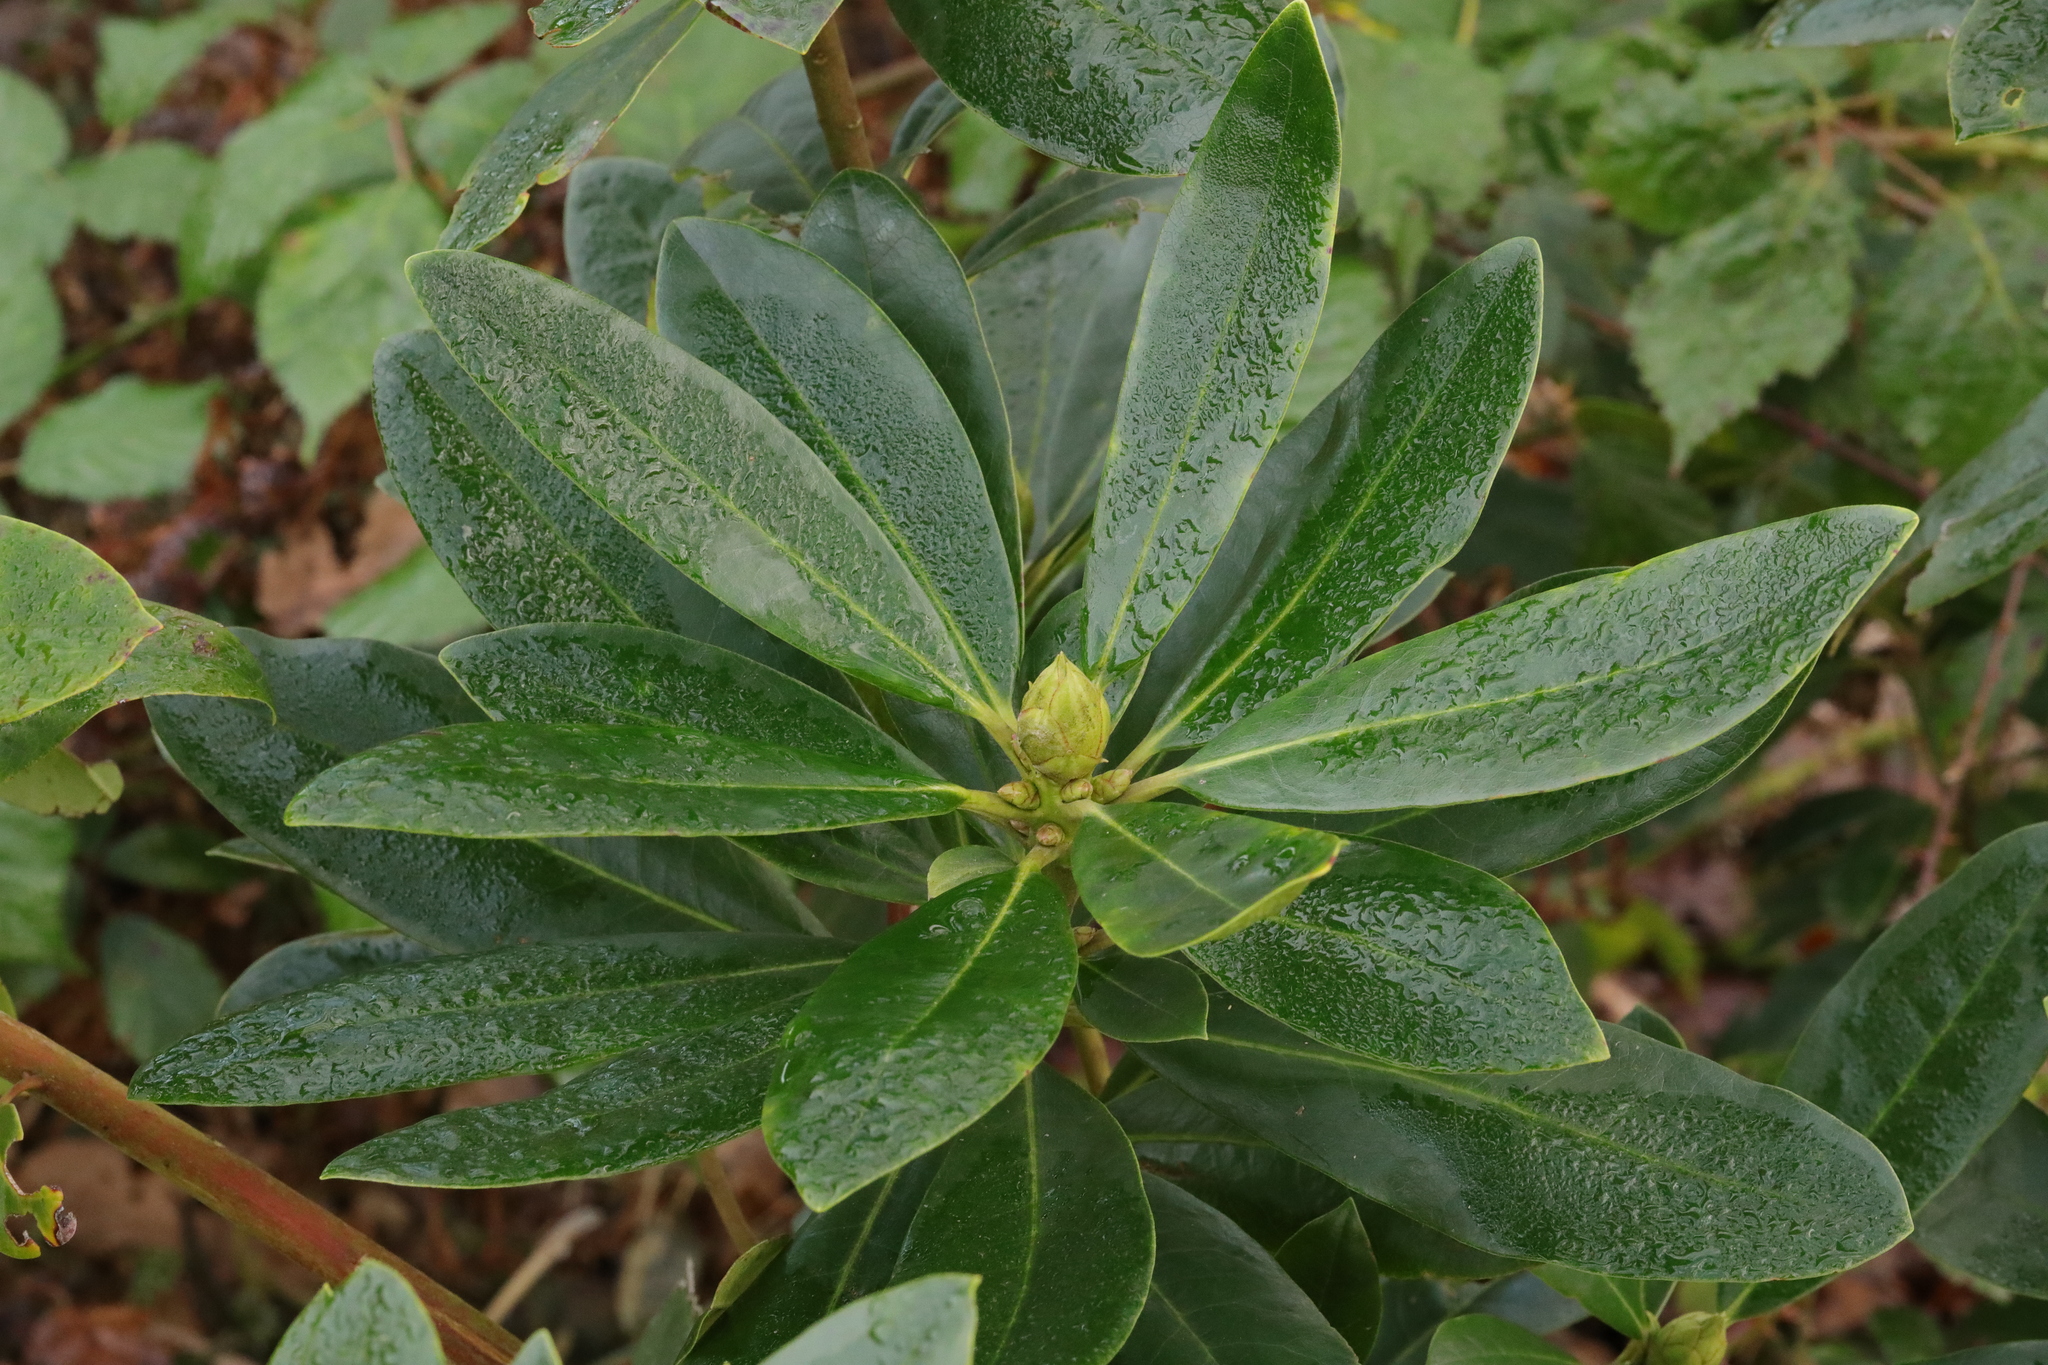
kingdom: Plantae
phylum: Tracheophyta
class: Magnoliopsida
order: Ericales
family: Ericaceae
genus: Rhododendron
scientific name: Rhododendron ponticum
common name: Rhododendron
